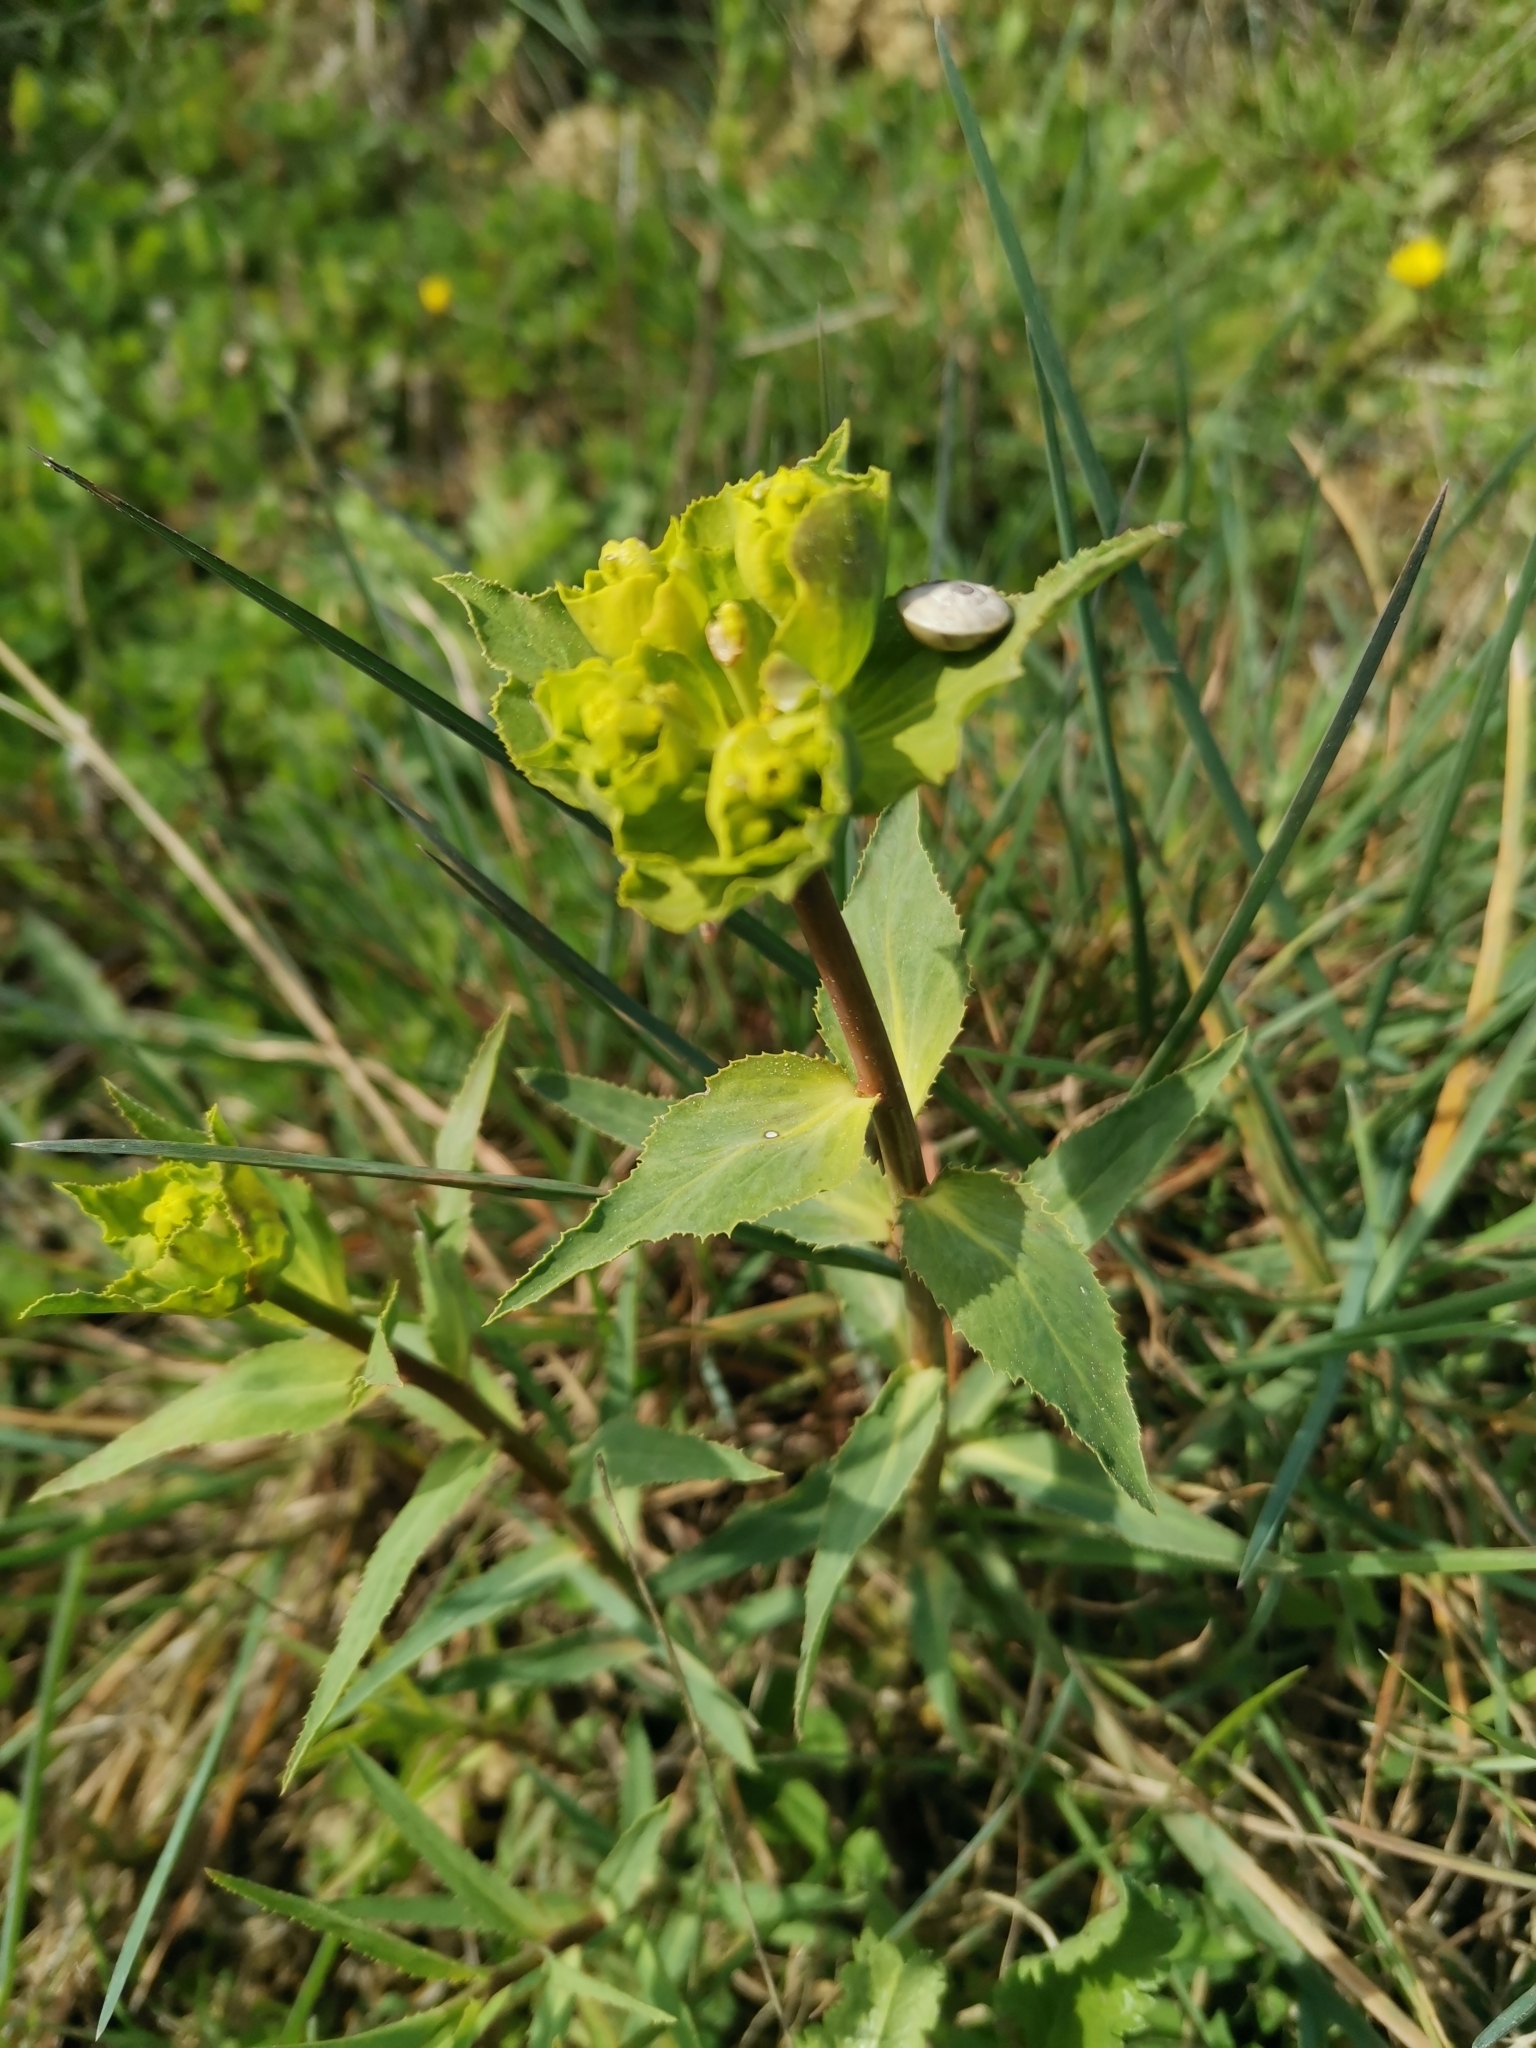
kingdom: Plantae
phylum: Tracheophyta
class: Magnoliopsida
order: Malpighiales
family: Euphorbiaceae
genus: Euphorbia
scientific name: Euphorbia serrata
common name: Serrate spurge
